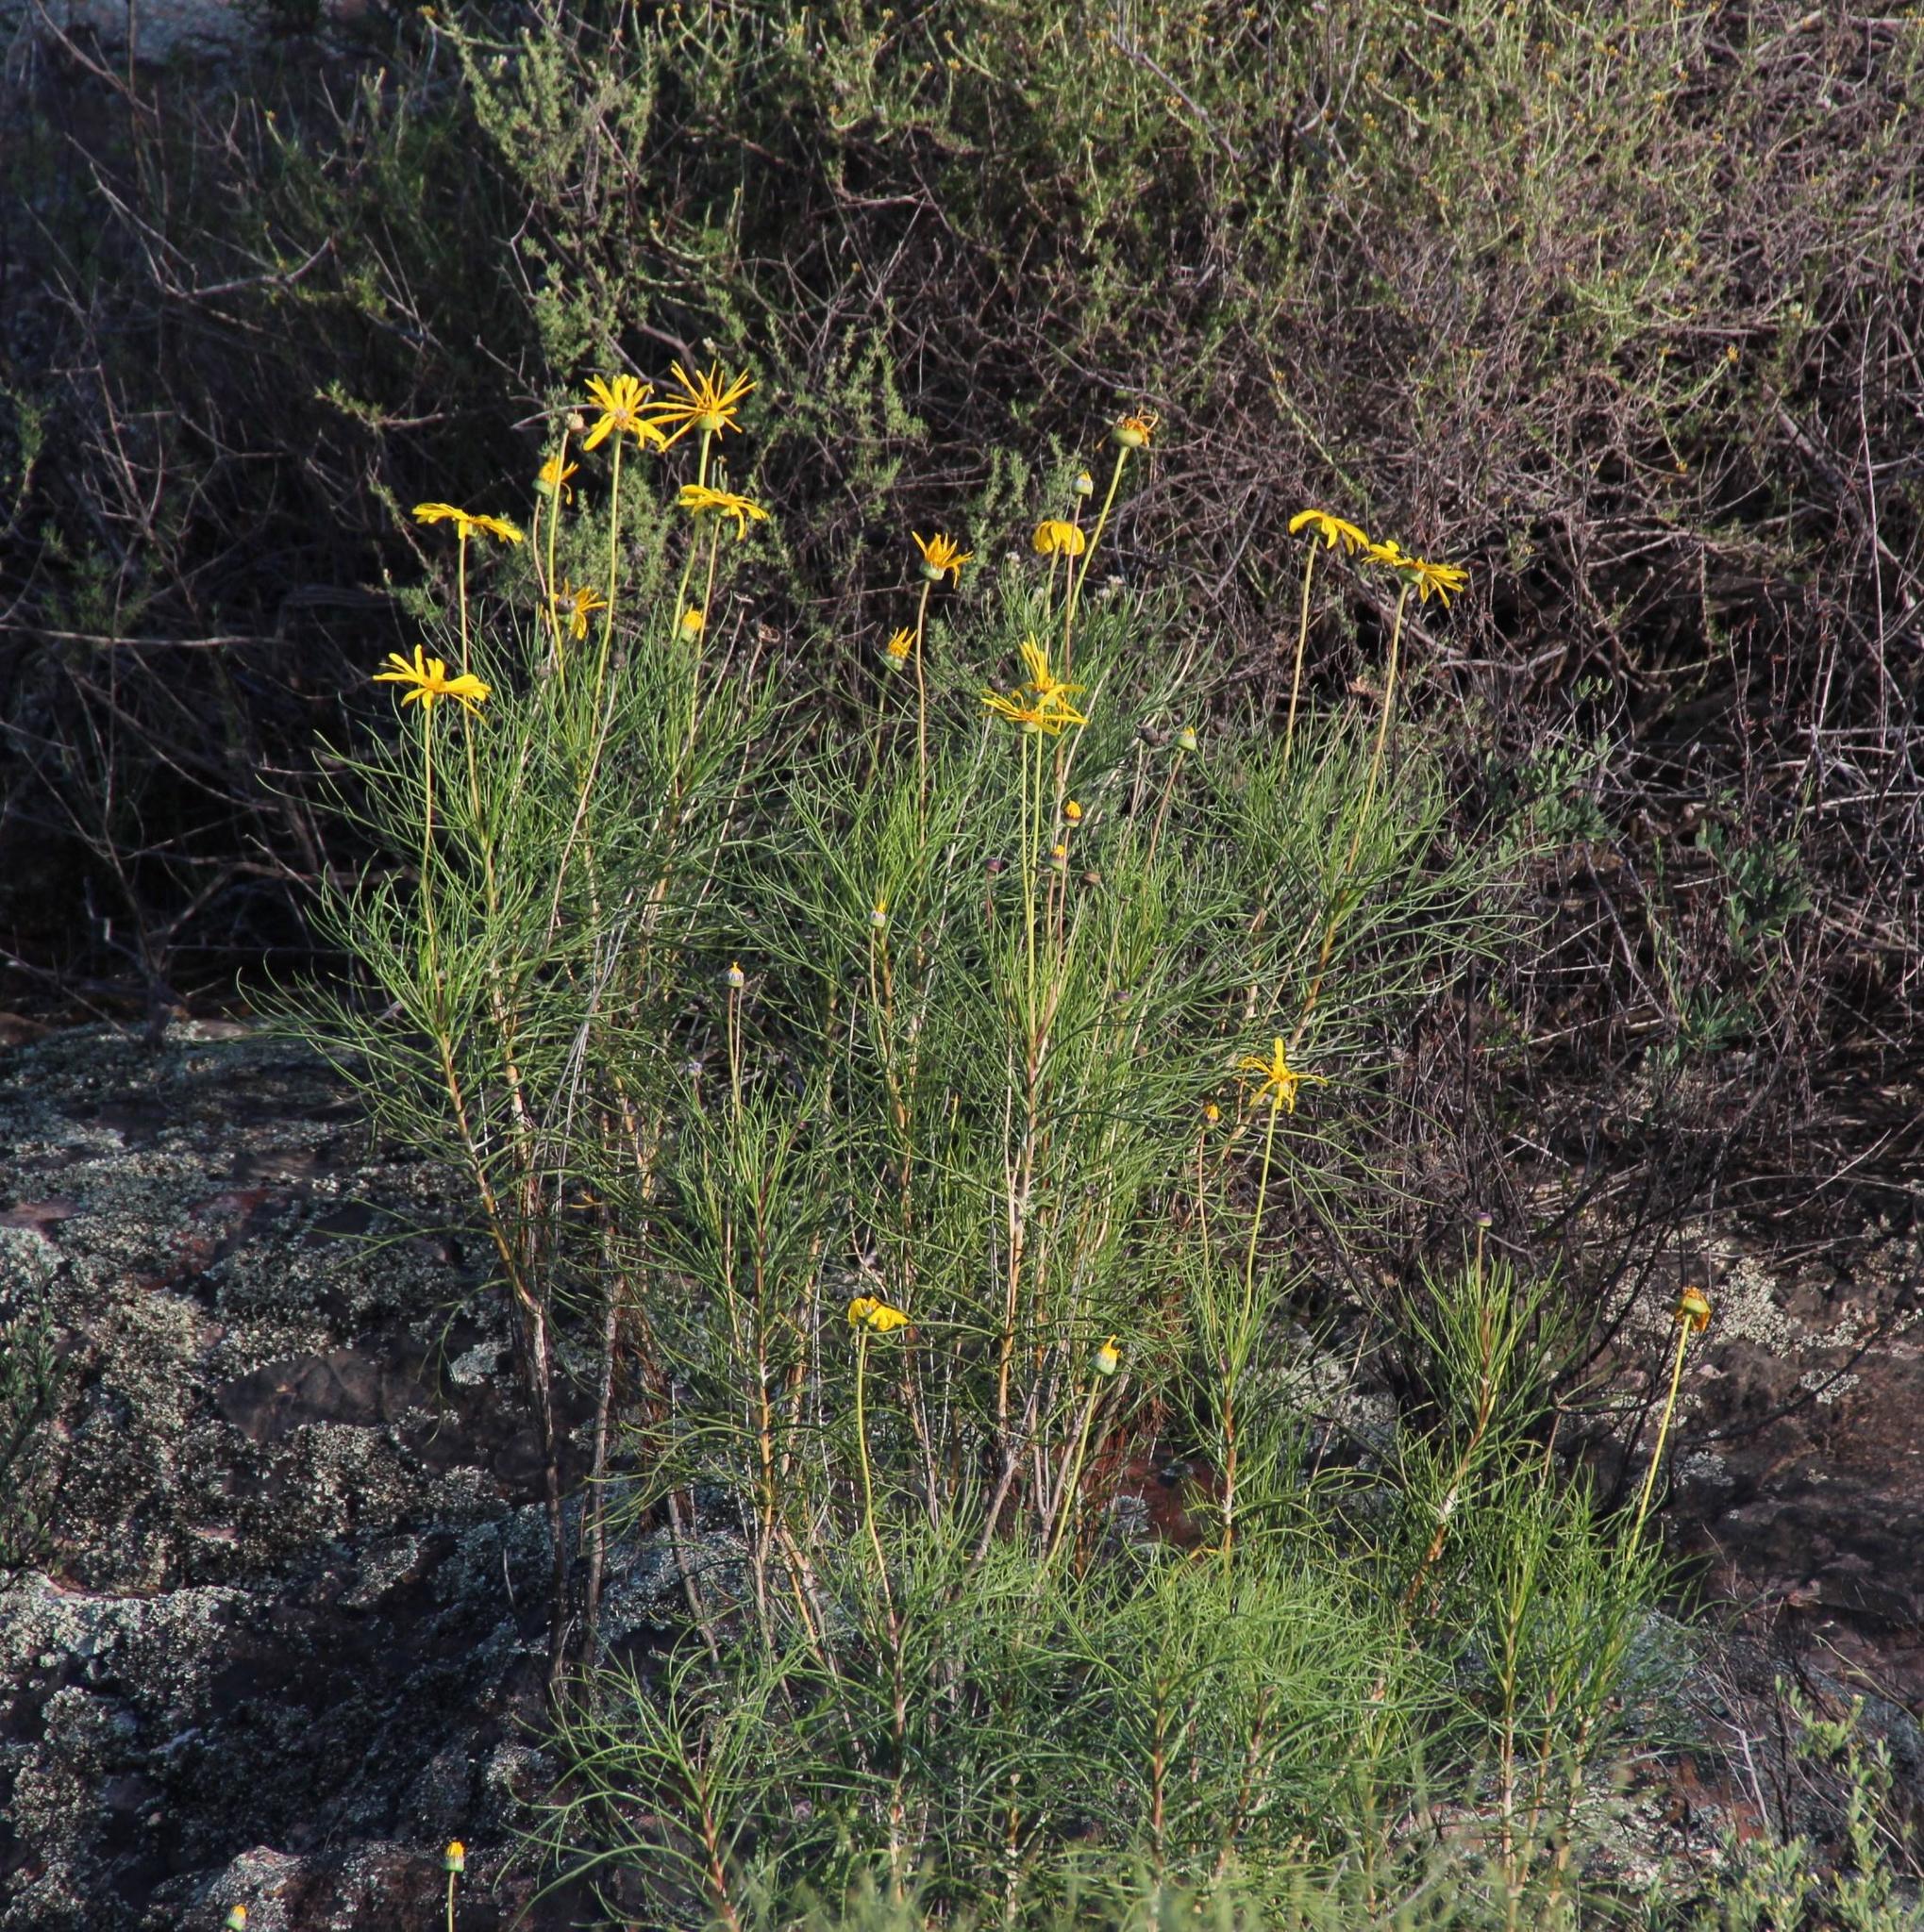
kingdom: Plantae
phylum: Tracheophyta
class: Magnoliopsida
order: Asterales
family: Asteraceae
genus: Euryops
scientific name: Euryops speciosissimus
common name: Clanwilliam daisy
